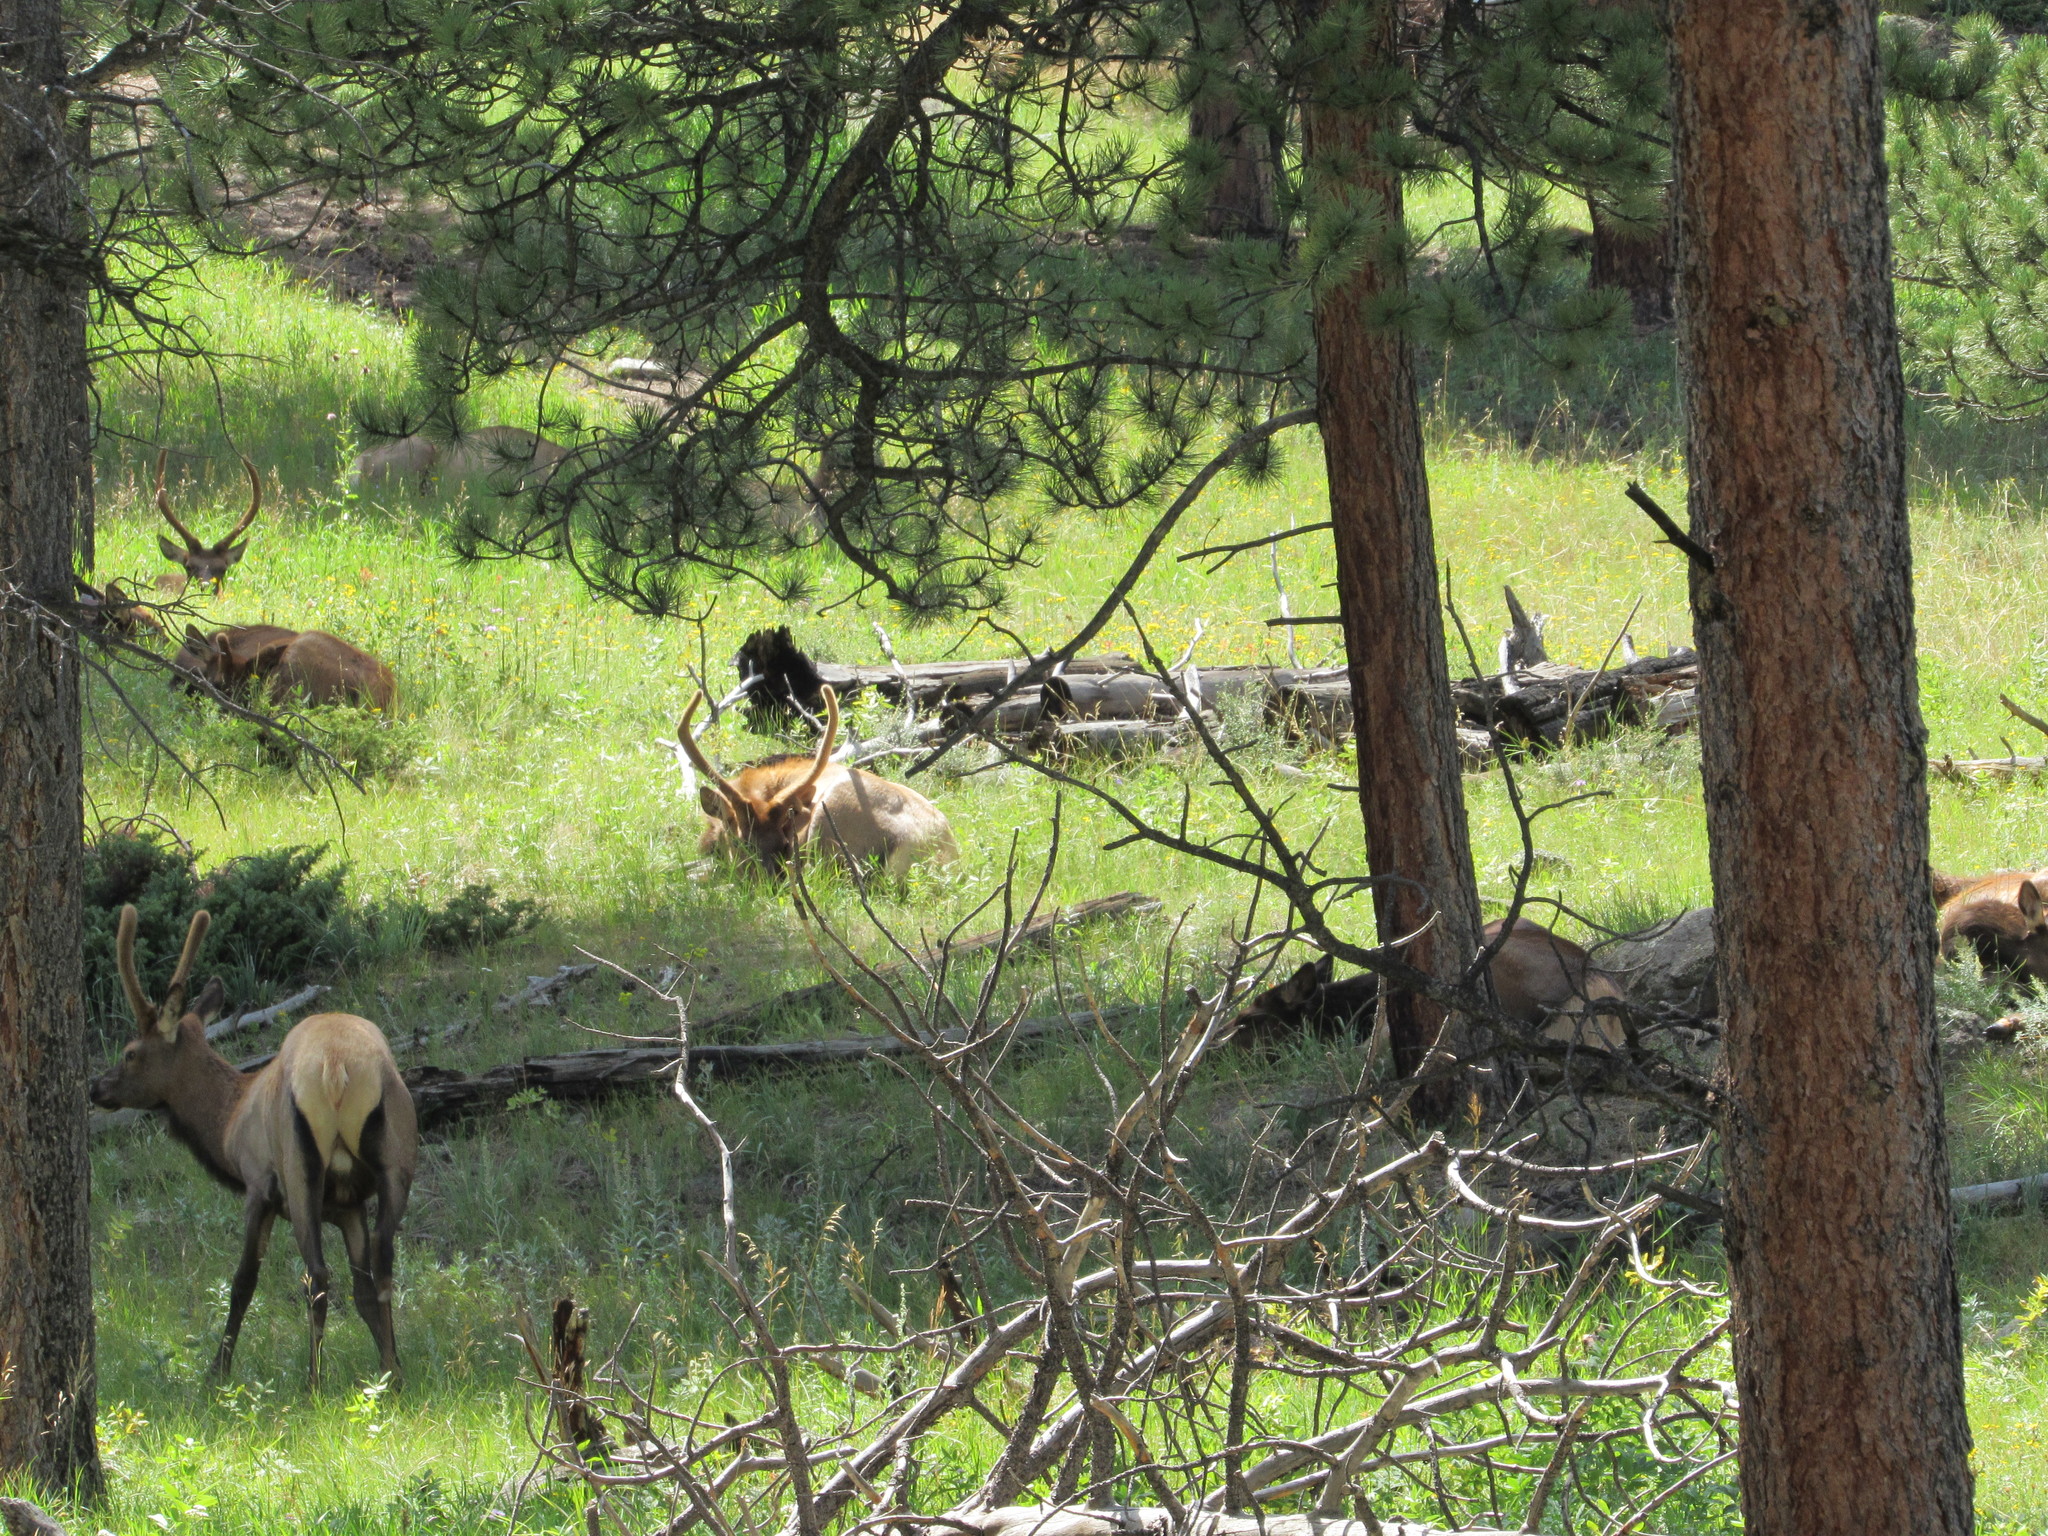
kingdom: Animalia
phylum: Chordata
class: Mammalia
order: Artiodactyla
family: Cervidae
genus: Cervus
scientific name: Cervus elaphus
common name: Red deer
